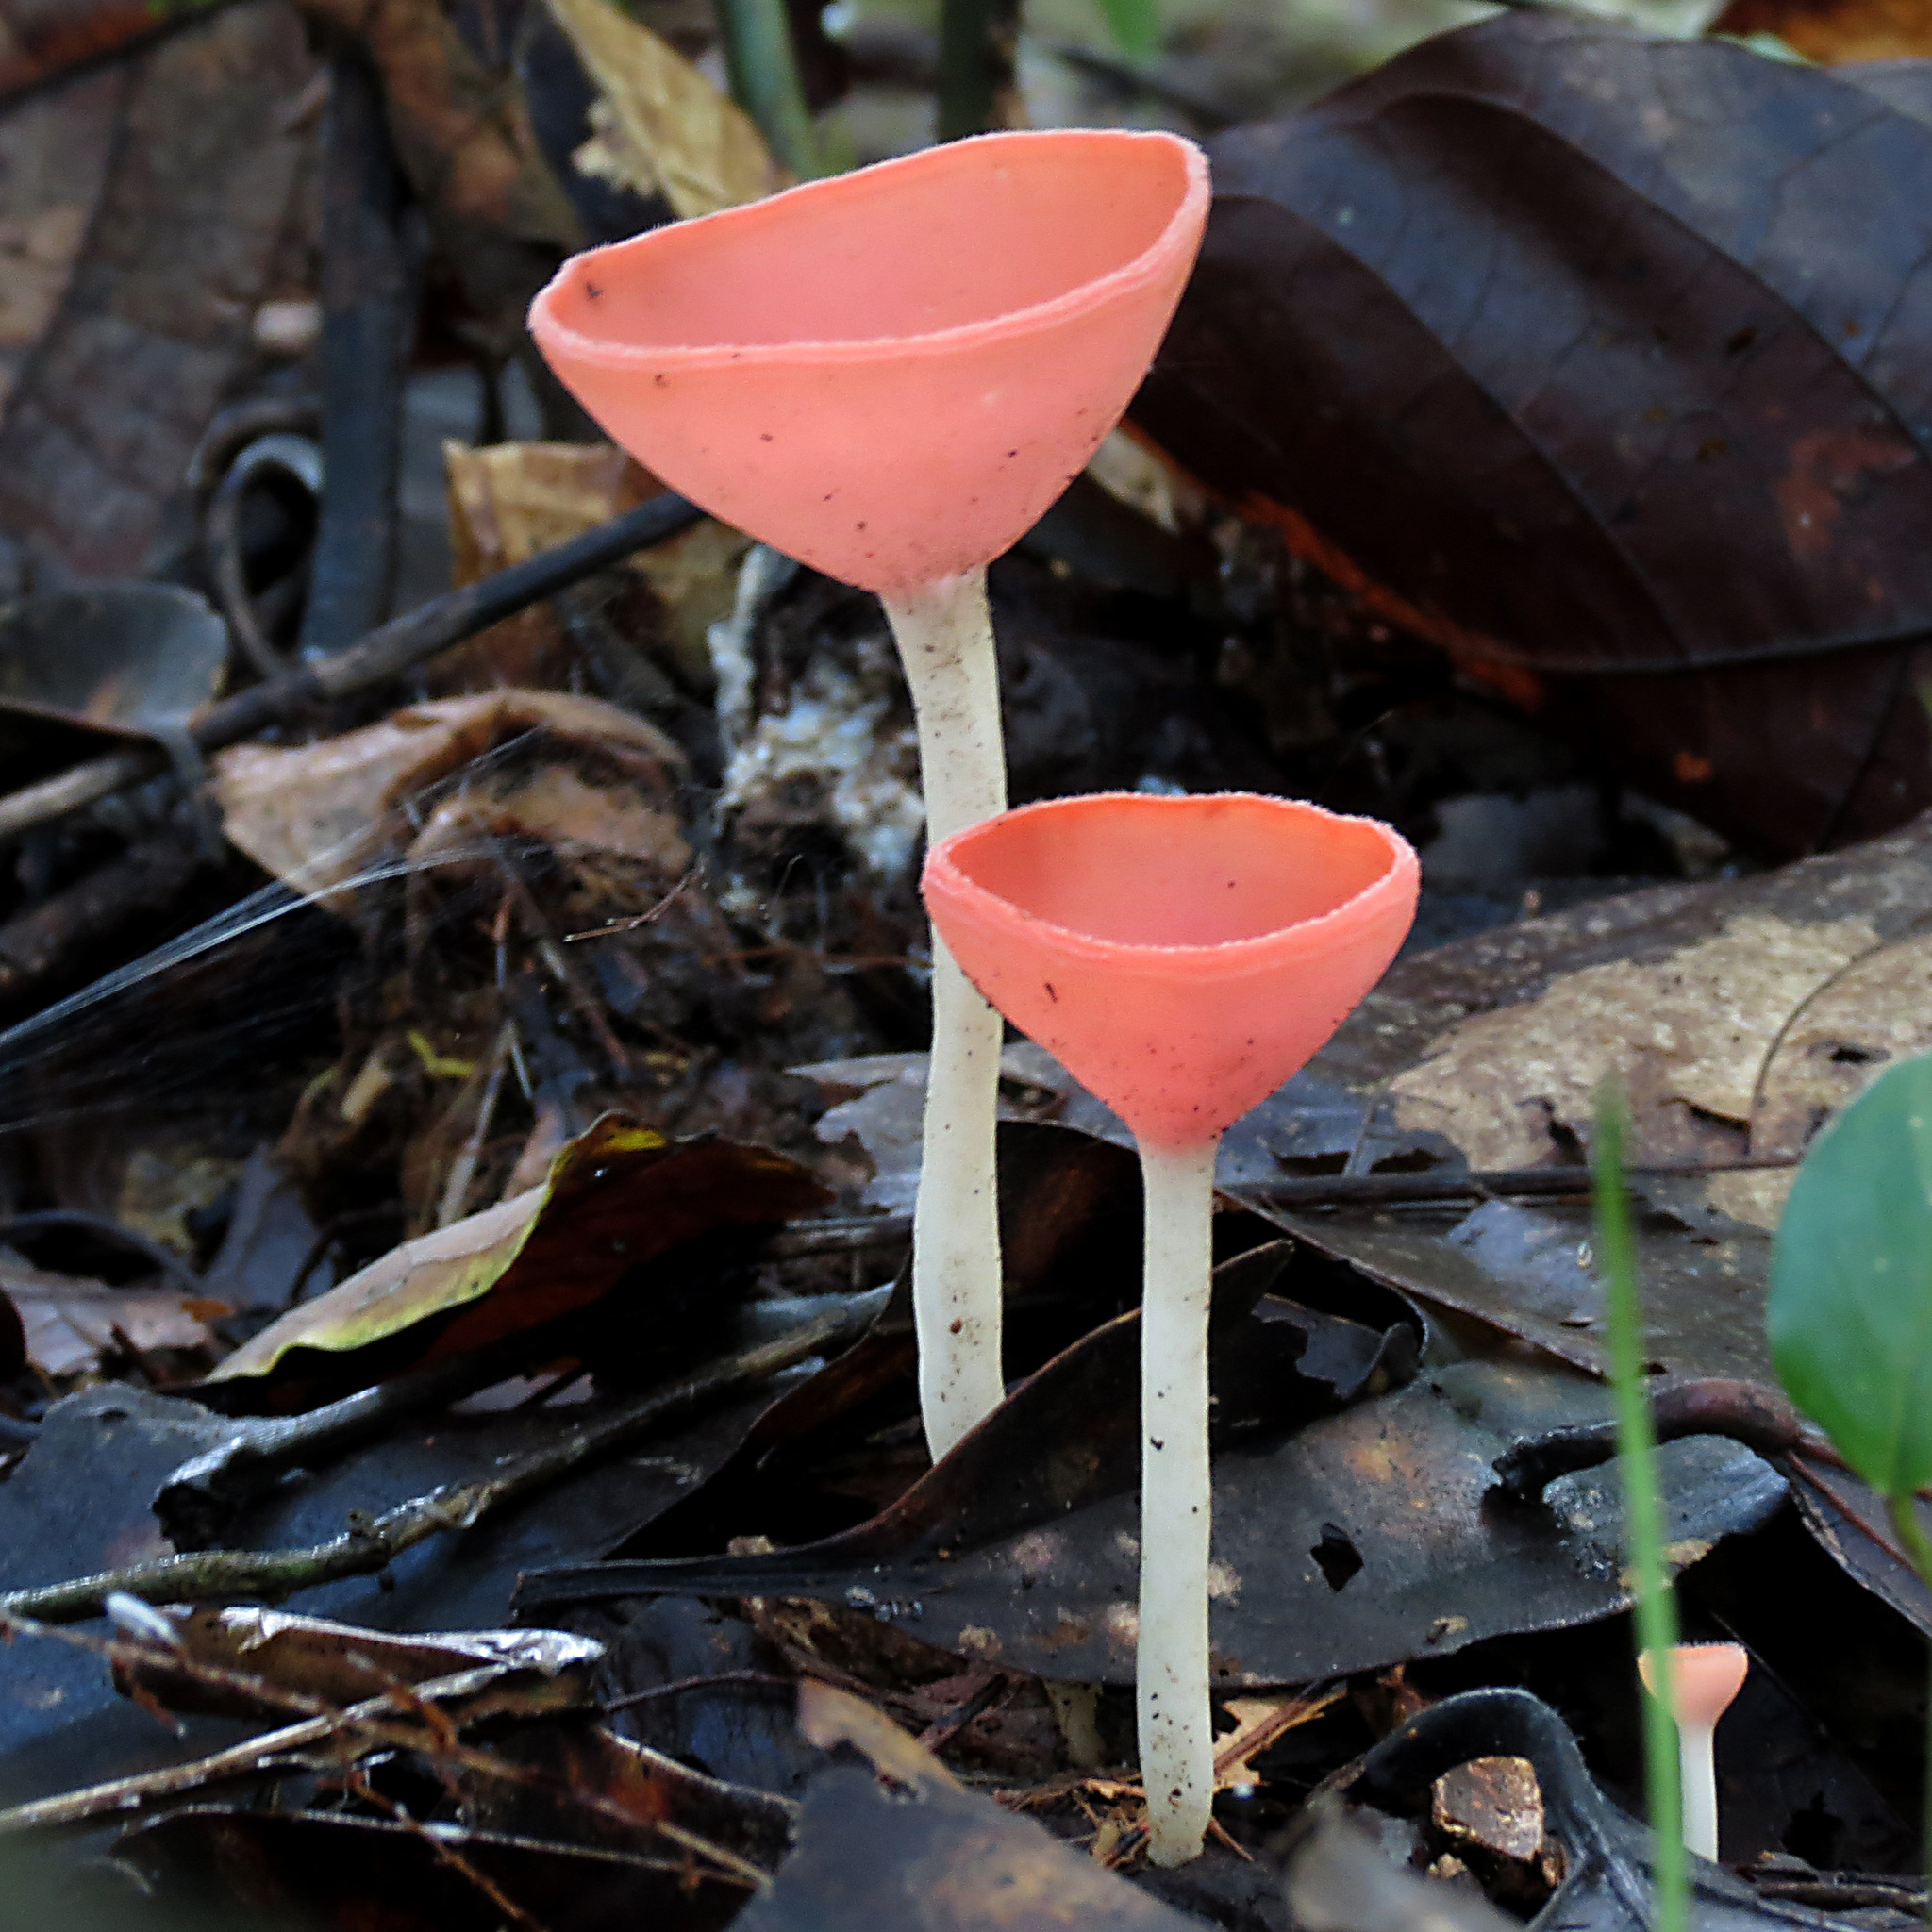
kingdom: Fungi
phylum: Ascomycota
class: Pezizomycetes
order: Pezizales
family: Sarcoscyphaceae
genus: Cookeina
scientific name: Cookeina speciosa
